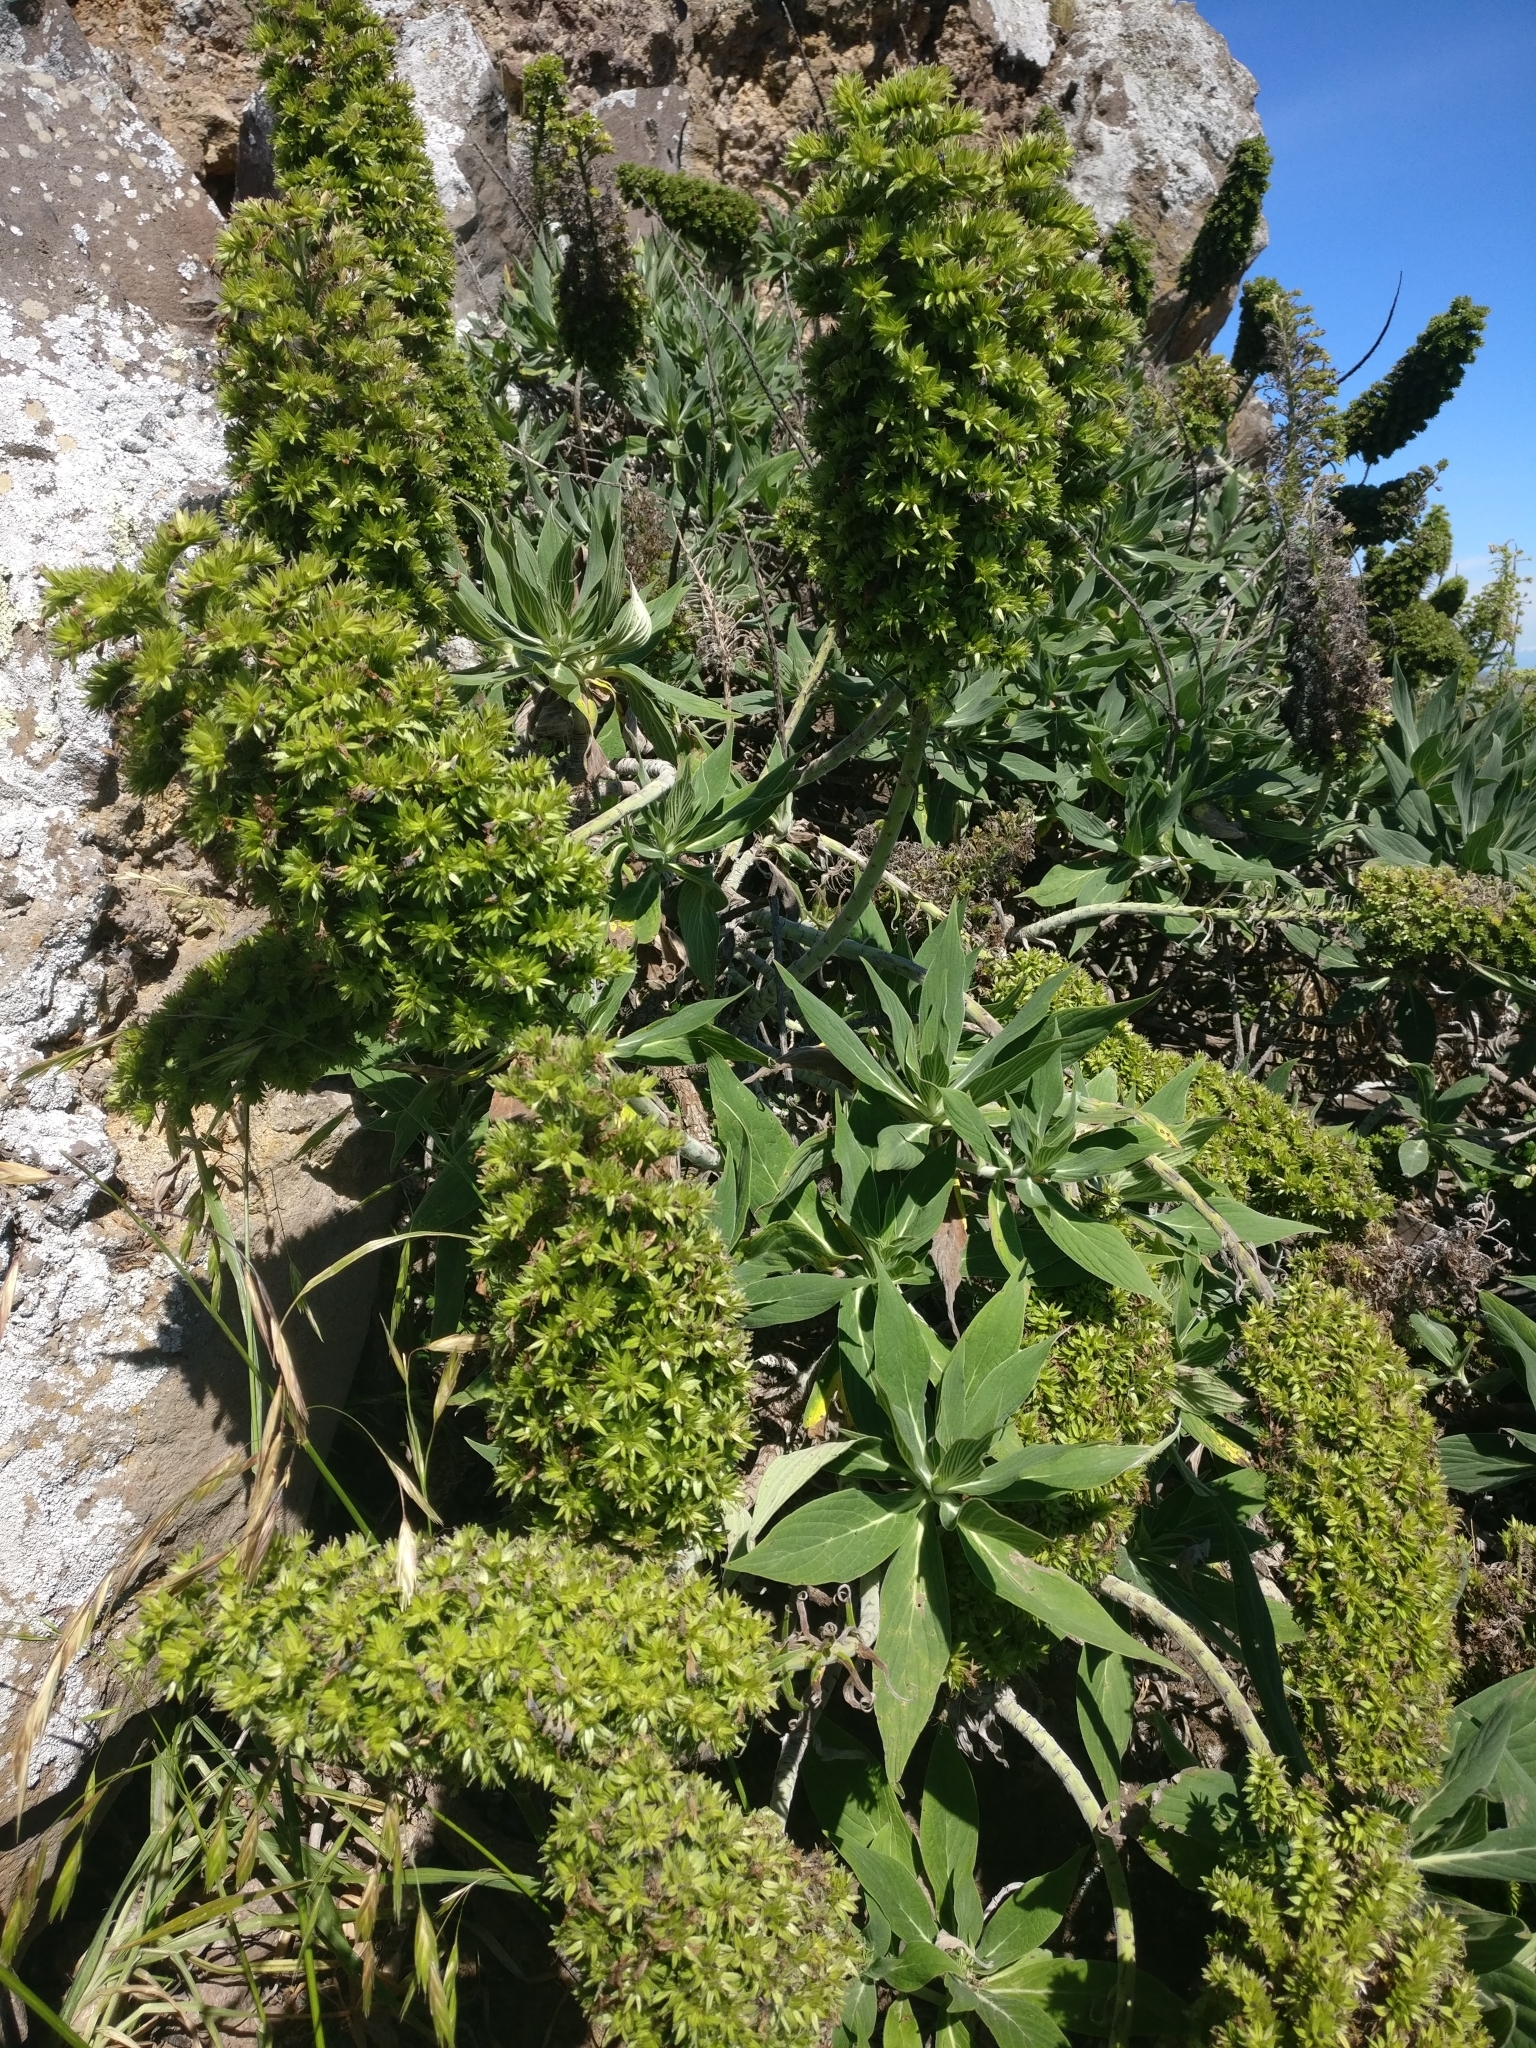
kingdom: Plantae
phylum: Tracheophyta
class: Magnoliopsida
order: Boraginales
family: Boraginaceae
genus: Echium
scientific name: Echium candicans
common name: Pride of madeira
